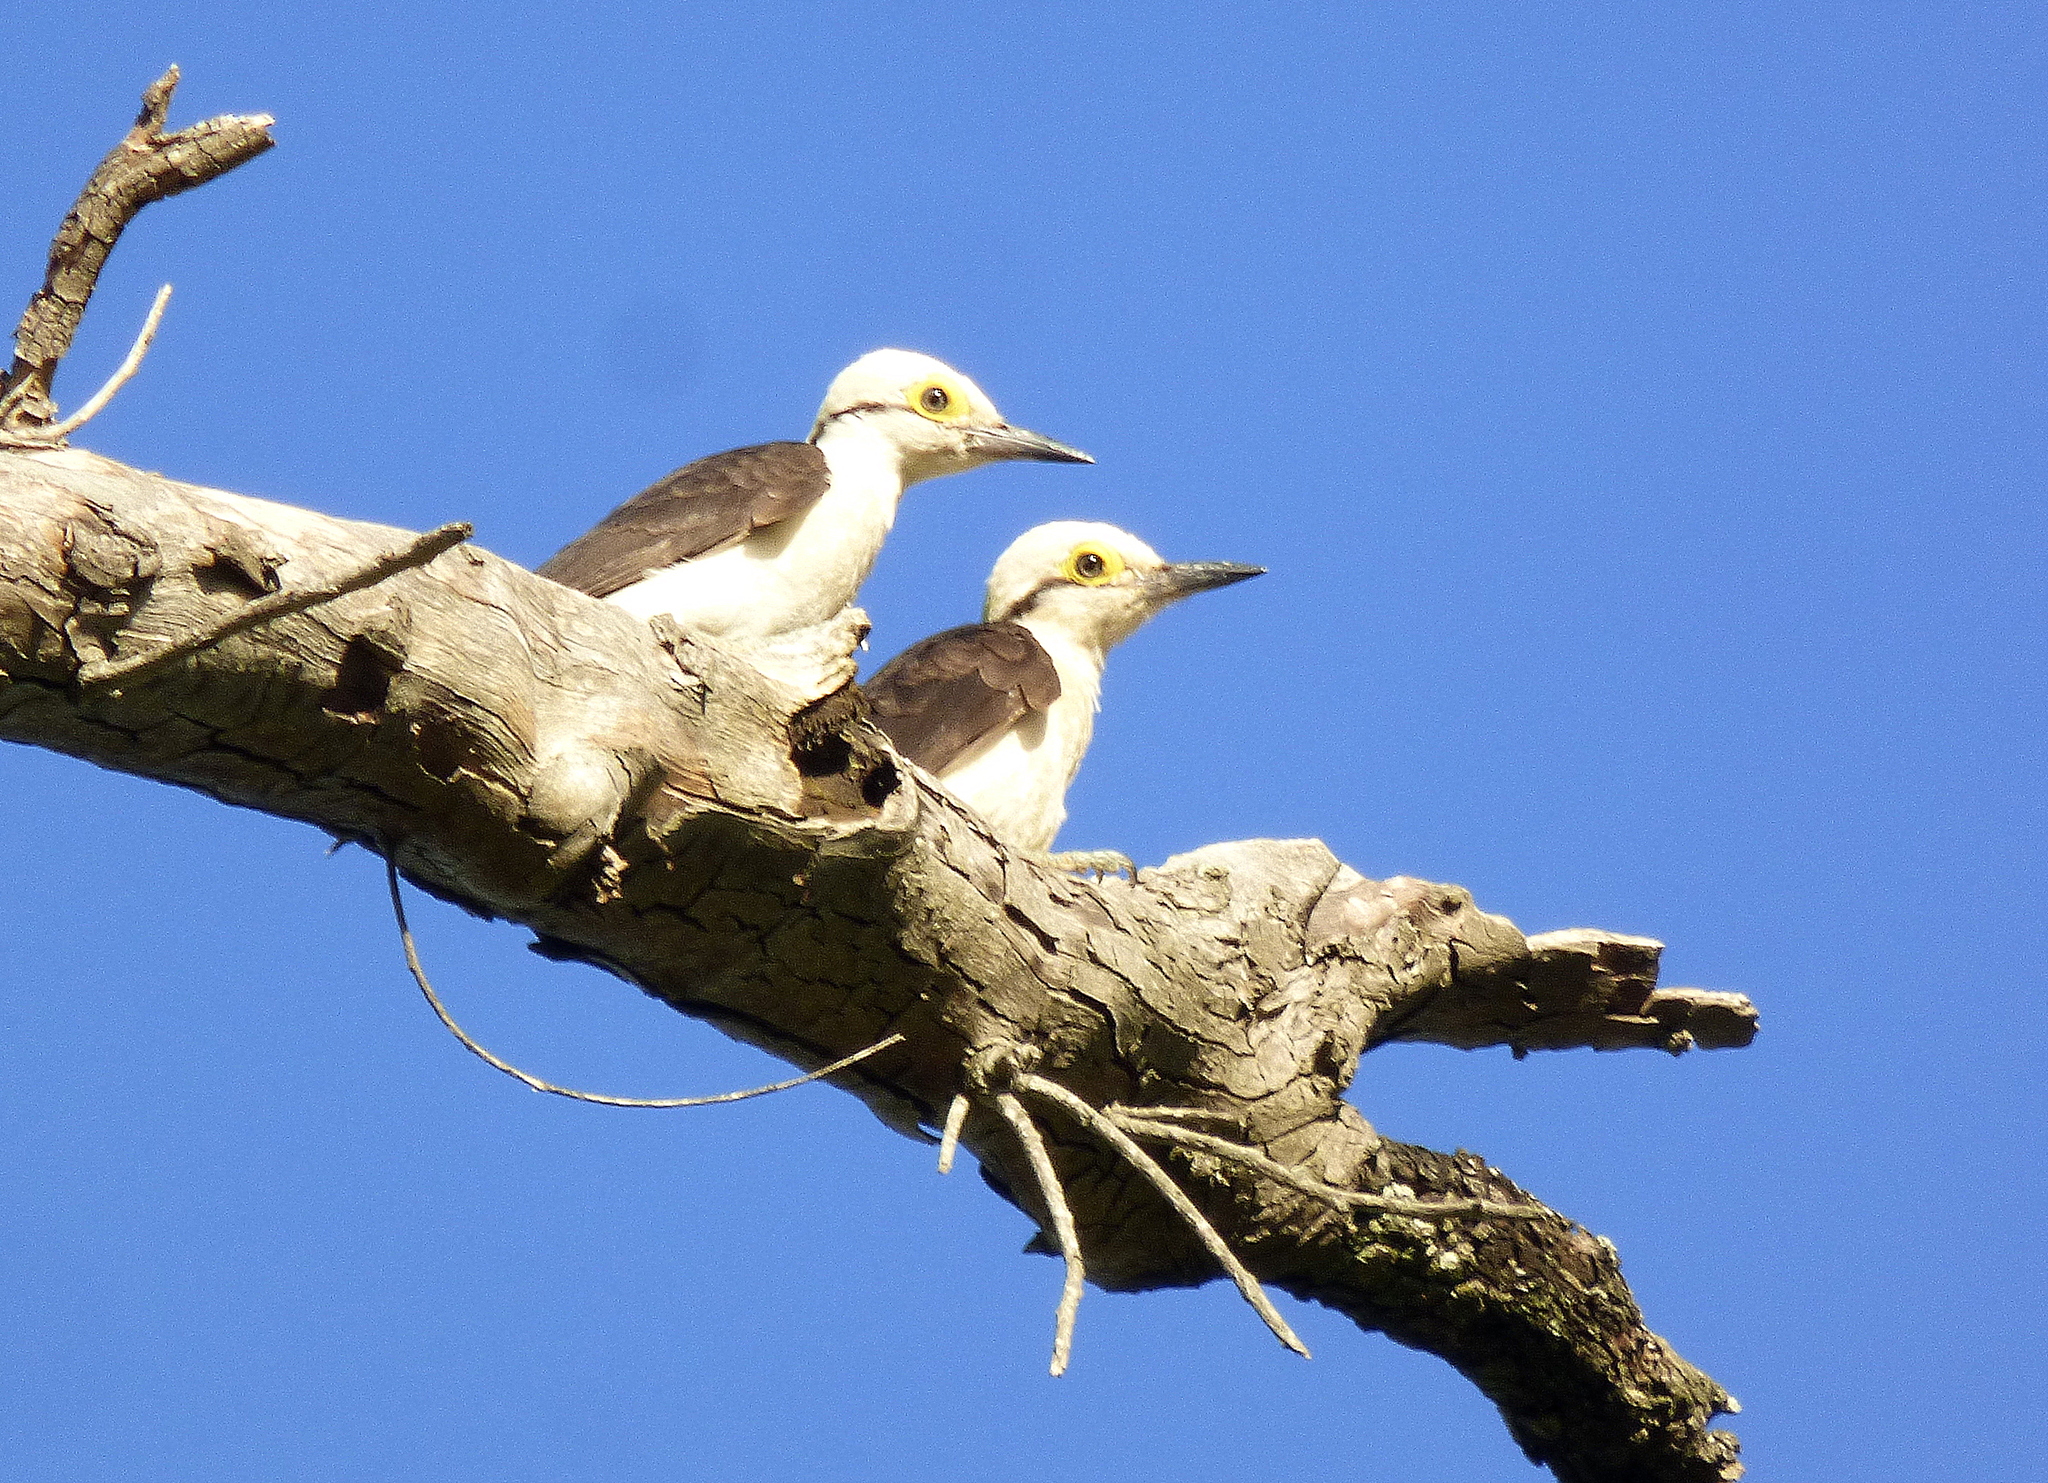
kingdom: Animalia
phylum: Chordata
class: Aves
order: Piciformes
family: Picidae
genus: Melanerpes
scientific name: Melanerpes candidus
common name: White woodpecker
